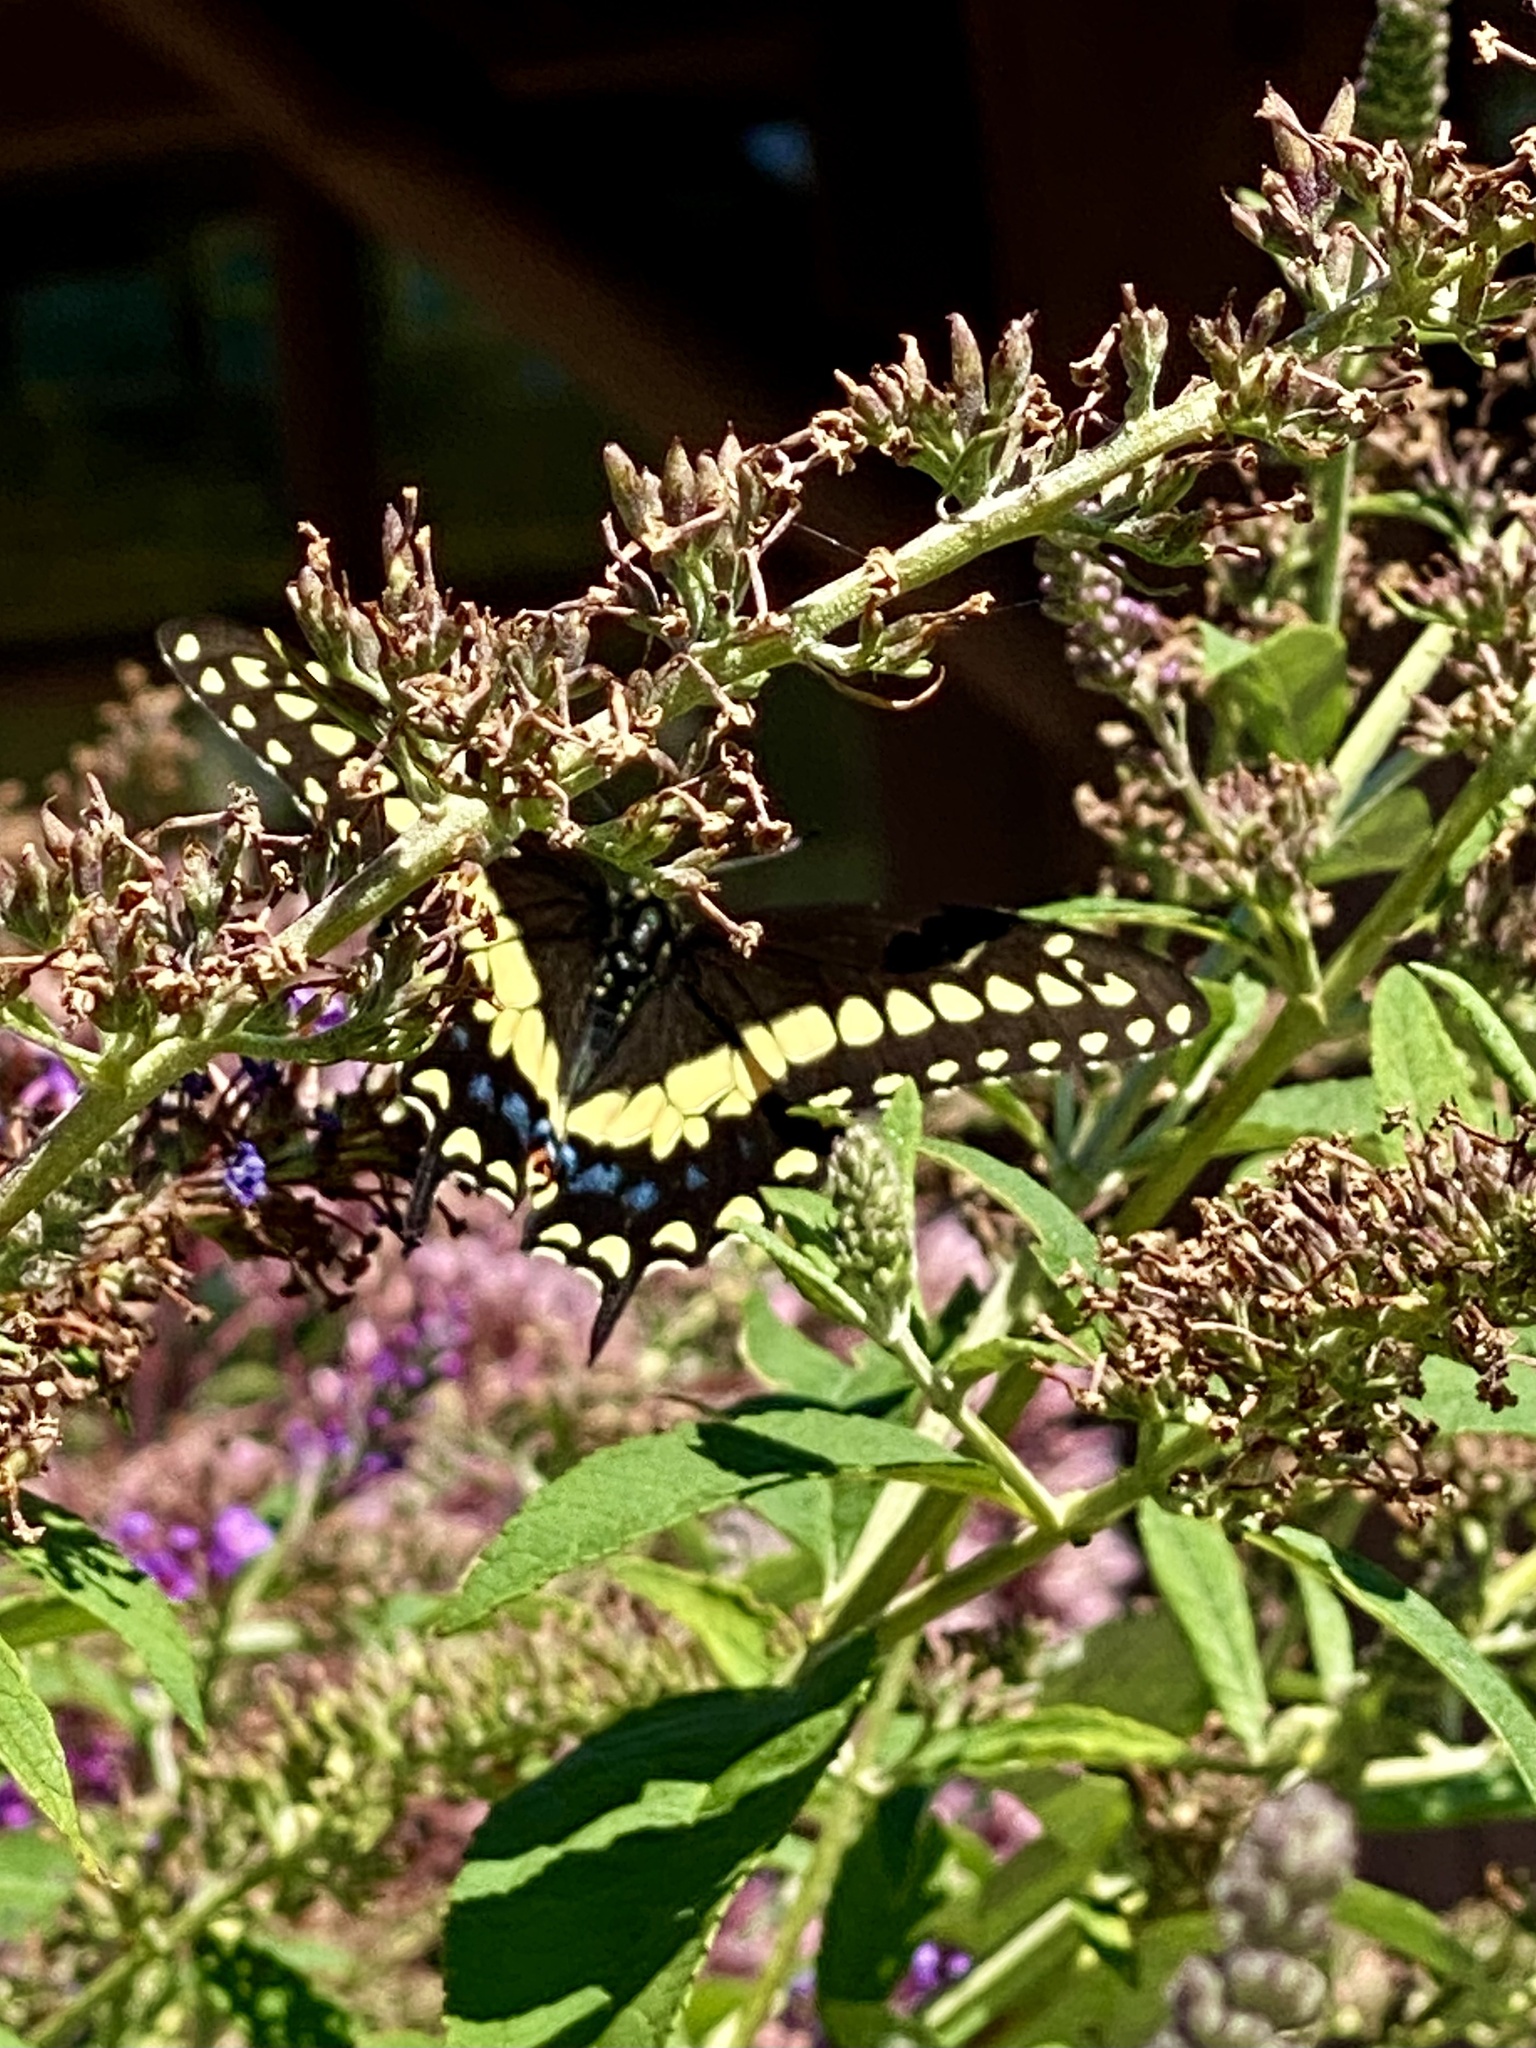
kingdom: Animalia
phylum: Arthropoda
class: Insecta
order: Lepidoptera
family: Papilionidae
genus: Papilio
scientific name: Papilio polyxenes
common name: Black swallowtail
